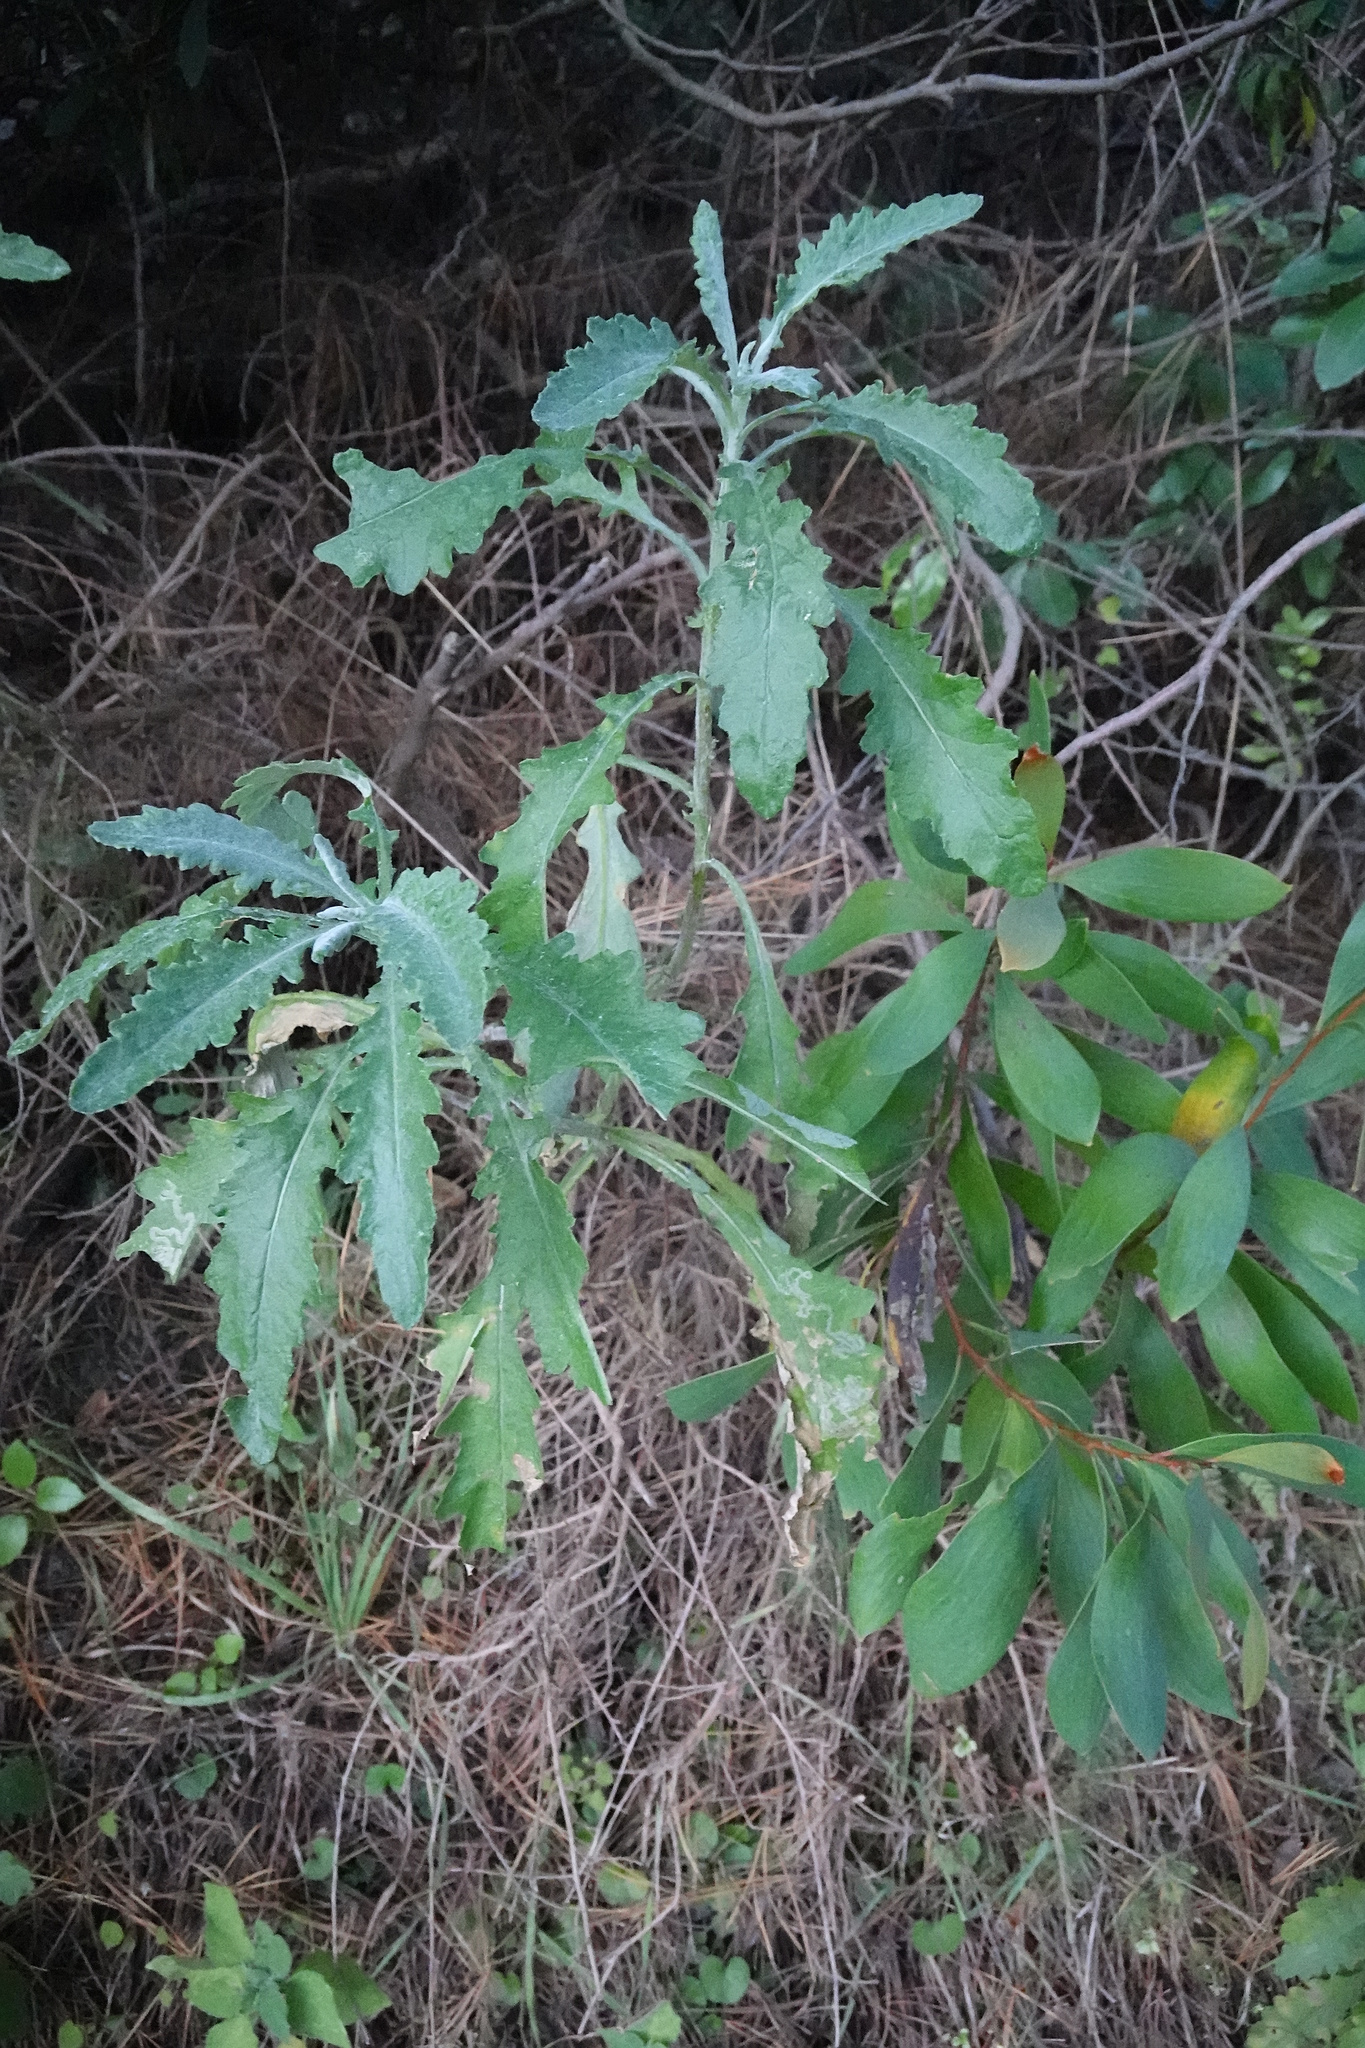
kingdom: Plantae
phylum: Tracheophyta
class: Magnoliopsida
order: Asterales
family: Asteraceae
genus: Senecio
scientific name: Senecio glomeratus
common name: Cutleaf burnweed
